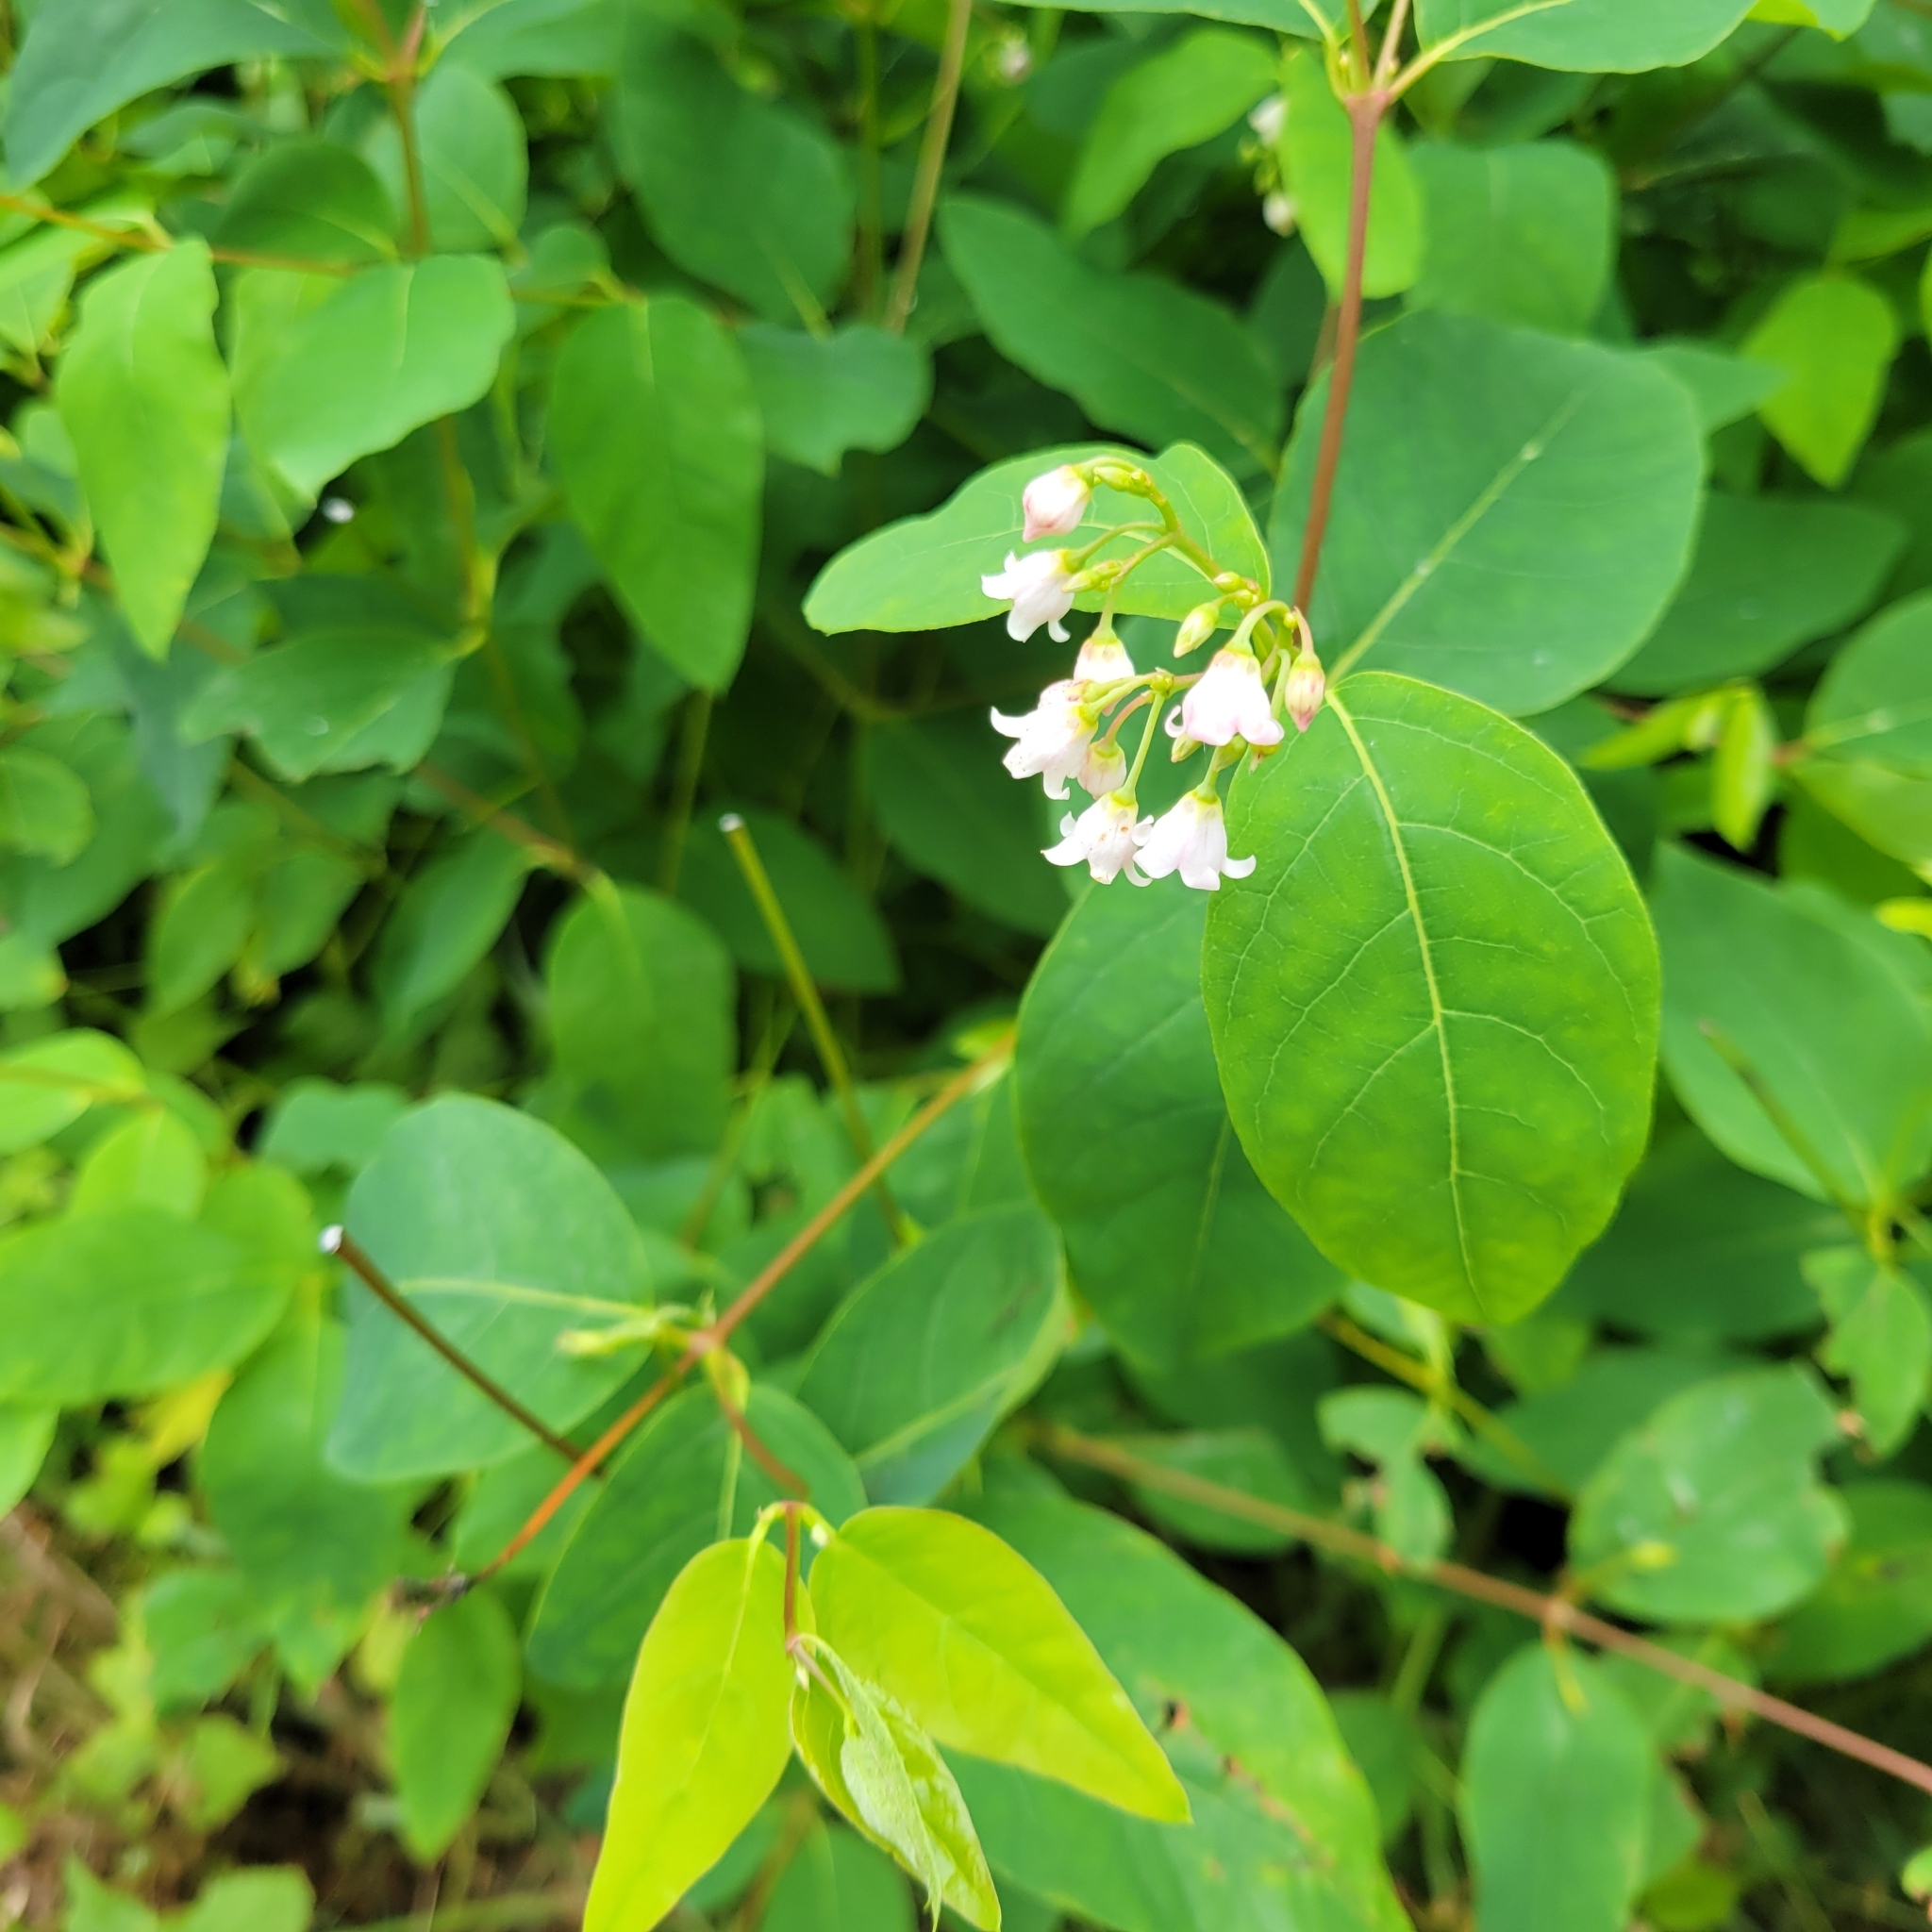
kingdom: Plantae
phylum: Tracheophyta
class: Magnoliopsida
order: Gentianales
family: Apocynaceae
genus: Apocynum
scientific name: Apocynum androsaemifolium
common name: Spreading dogbane
